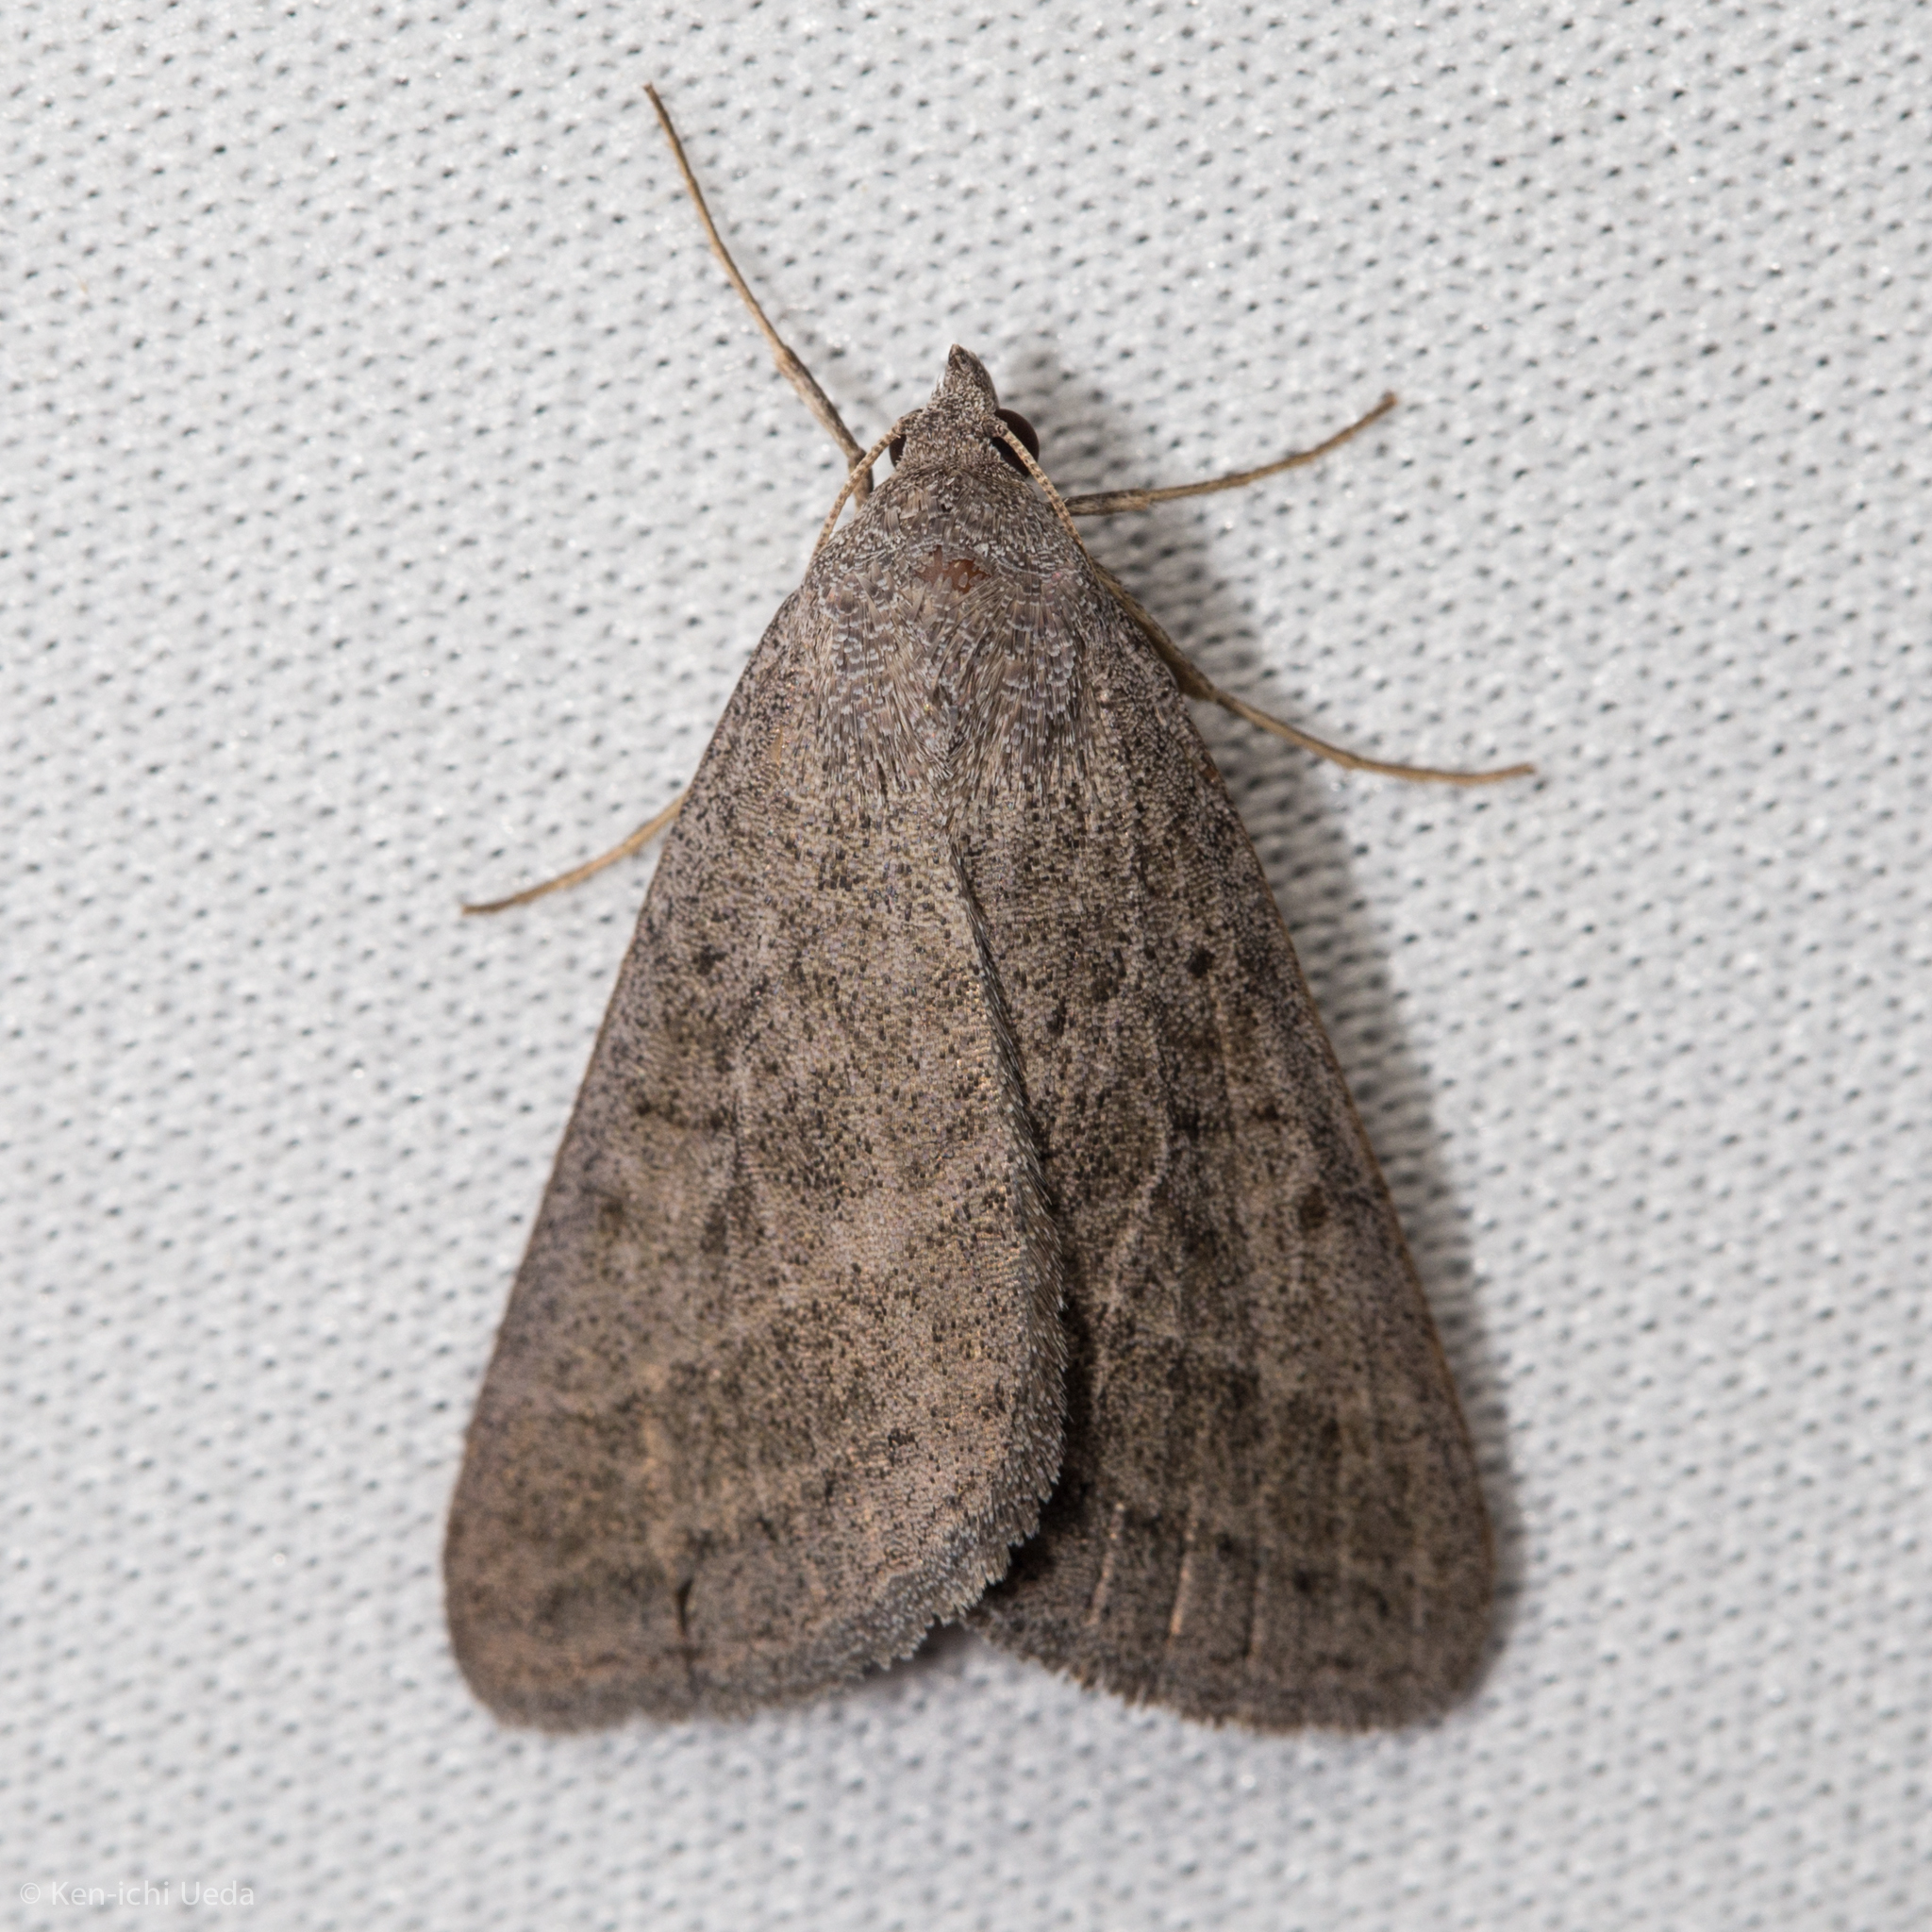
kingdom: Animalia
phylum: Arthropoda
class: Insecta
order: Lepidoptera
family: Erebidae
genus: Caenurgia
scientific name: Caenurgia togataria
